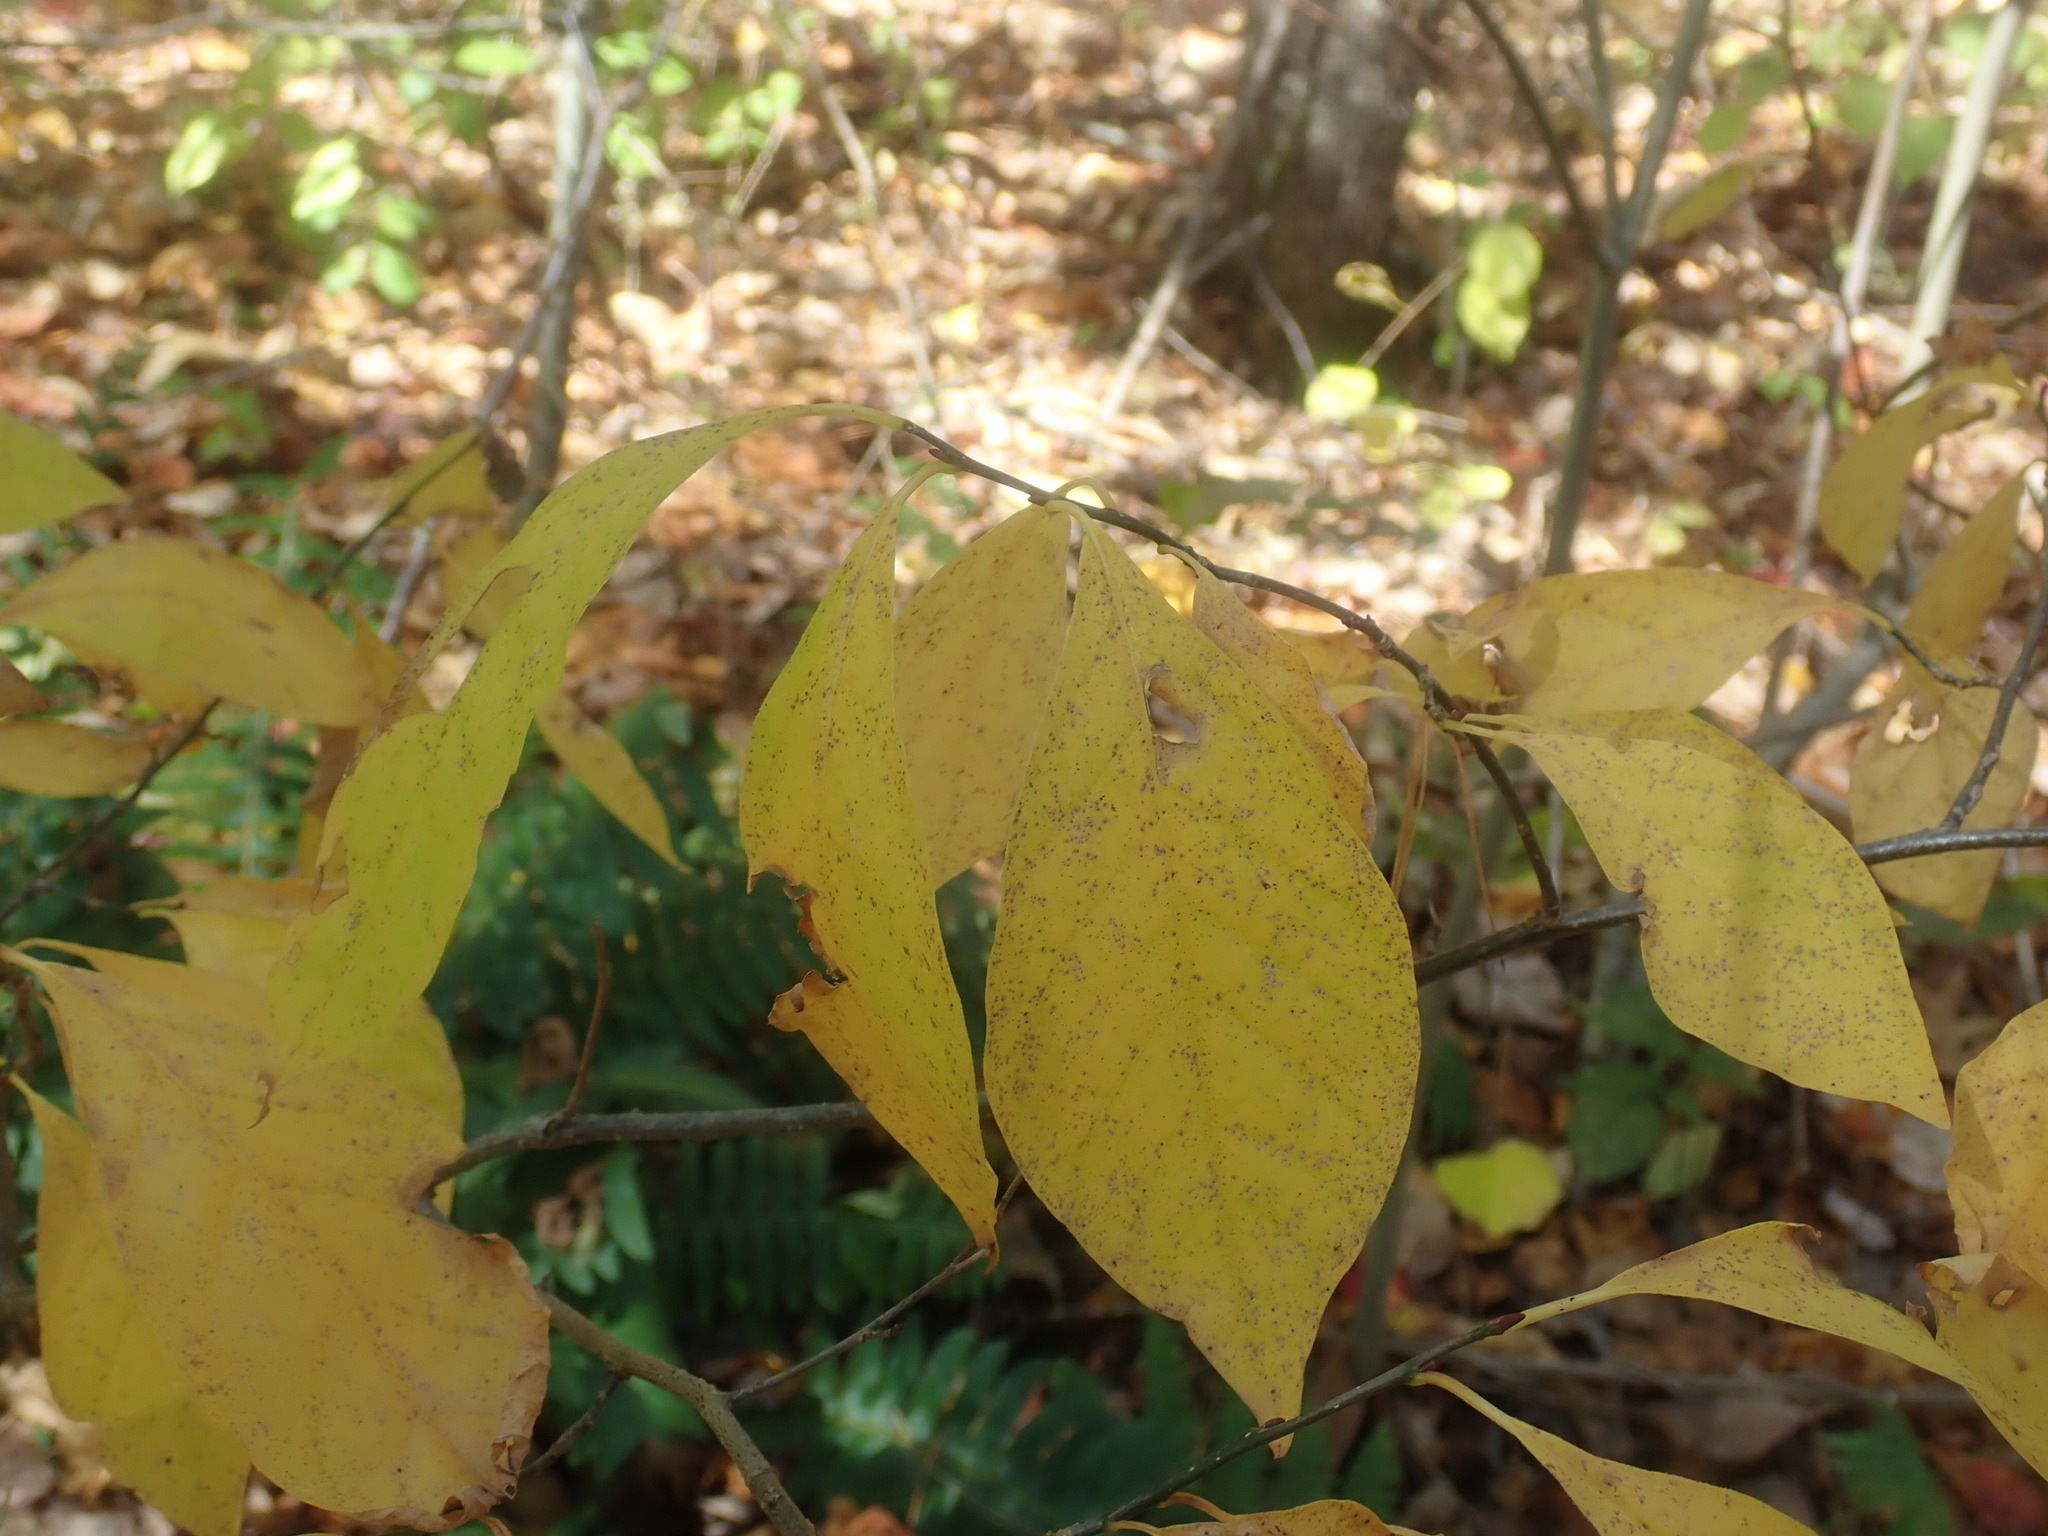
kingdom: Plantae
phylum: Tracheophyta
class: Magnoliopsida
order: Laurales
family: Lauraceae
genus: Lindera
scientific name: Lindera benzoin
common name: Spicebush
